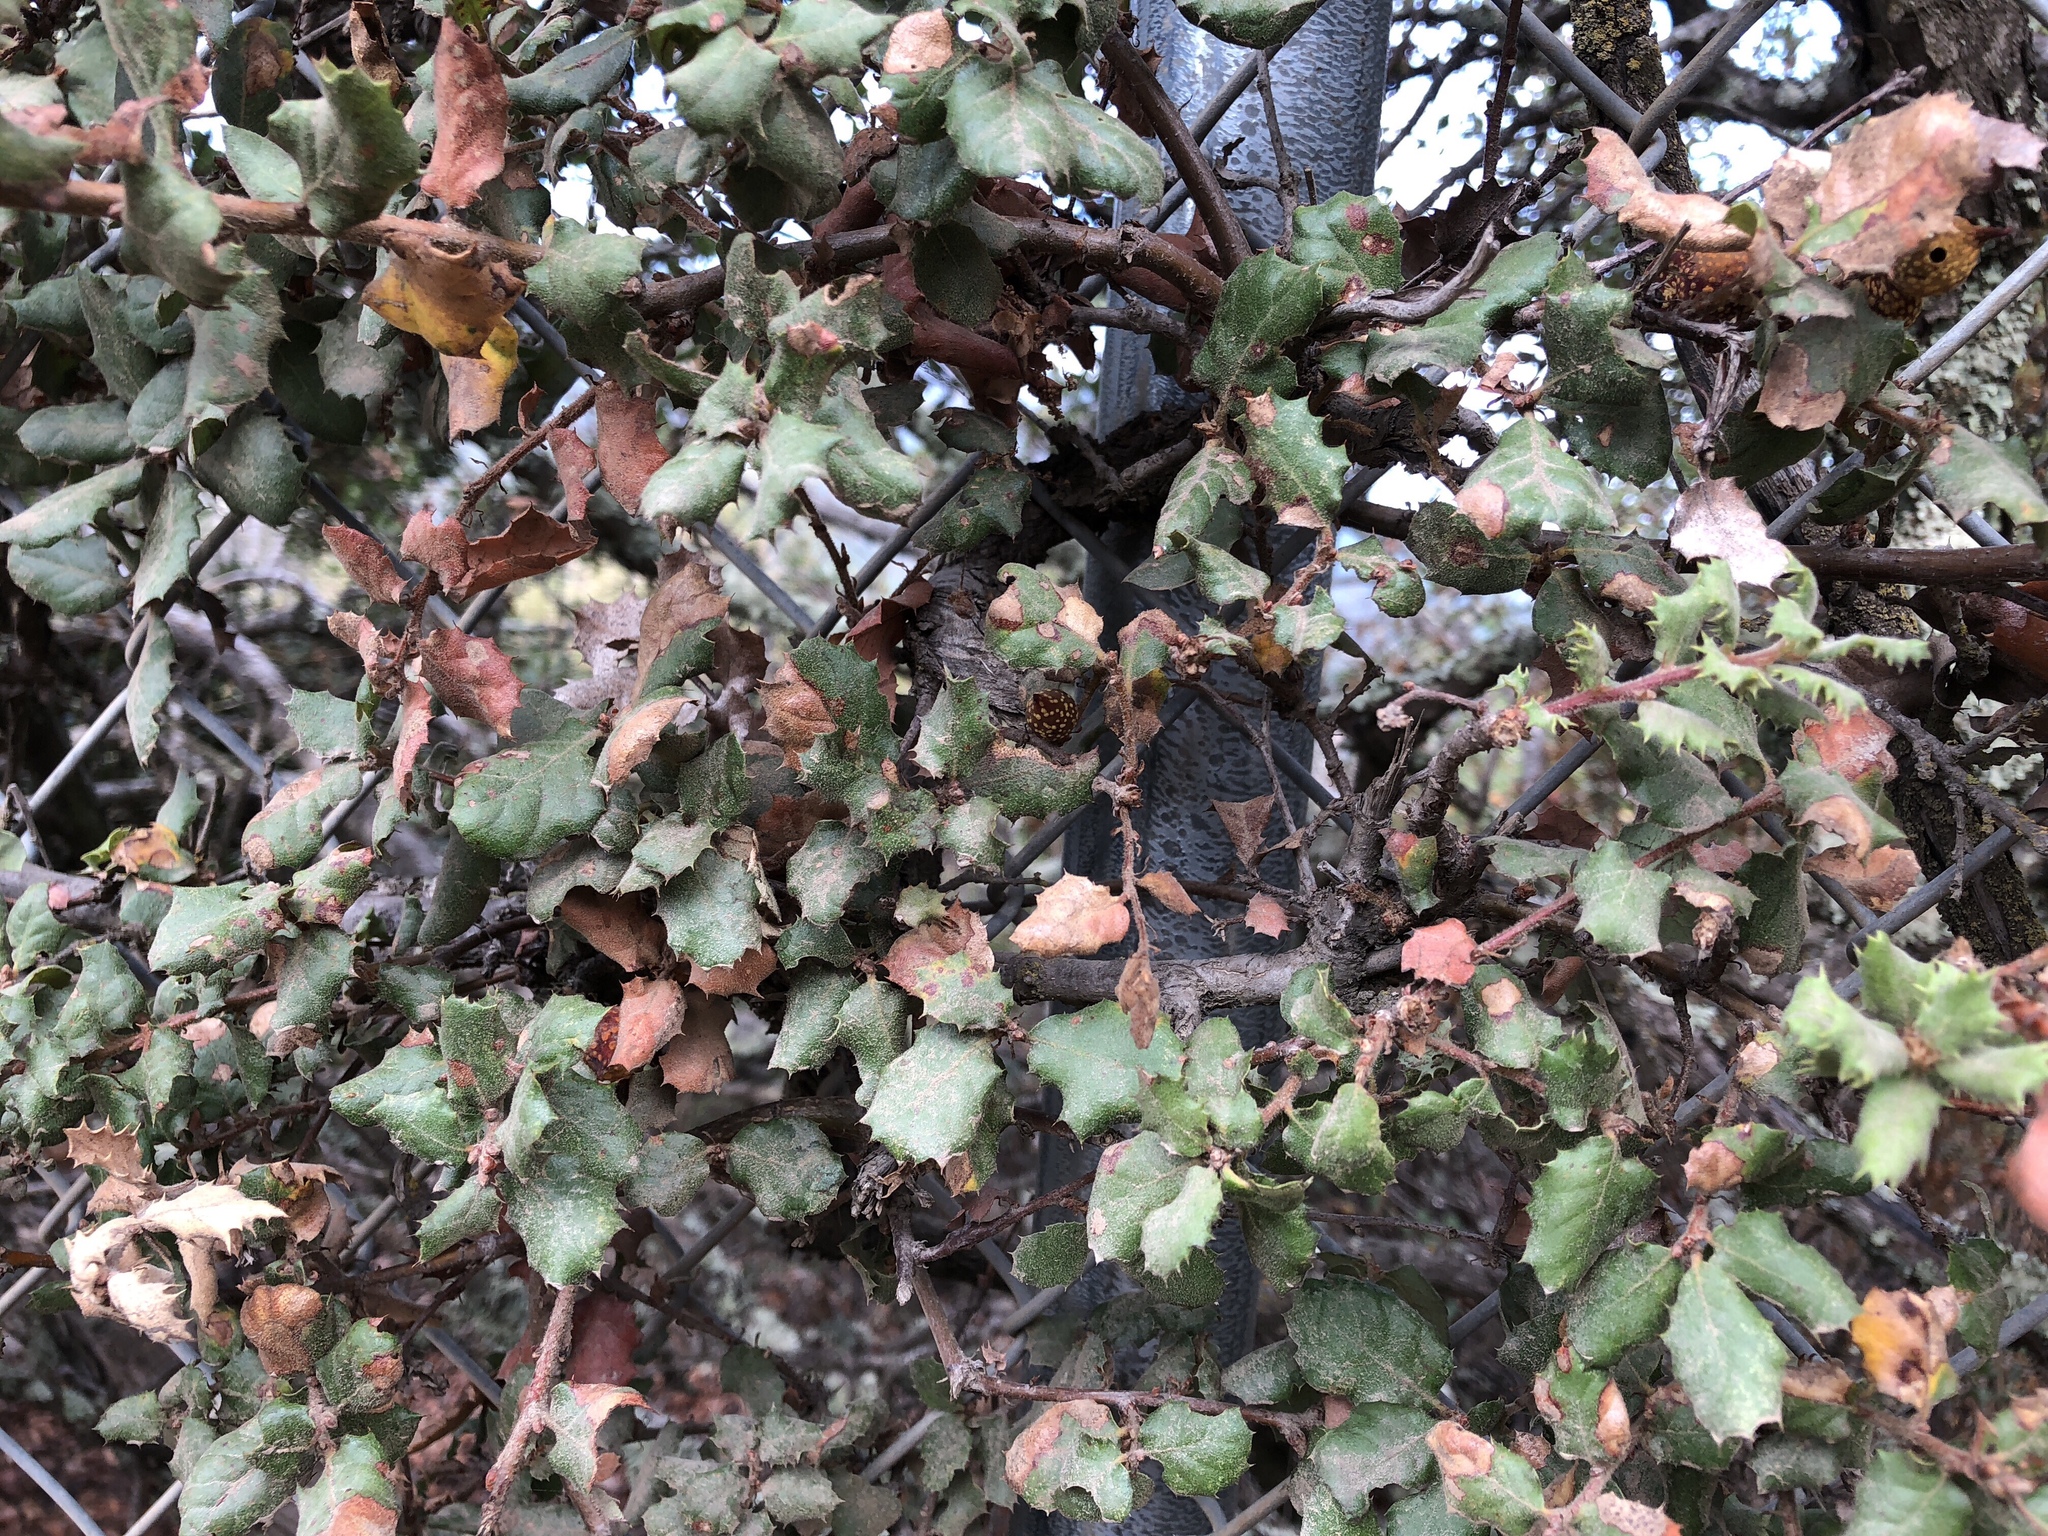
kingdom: Plantae
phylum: Tracheophyta
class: Magnoliopsida
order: Fagales
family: Fagaceae
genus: Quercus
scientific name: Quercus durata
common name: Leather oak
